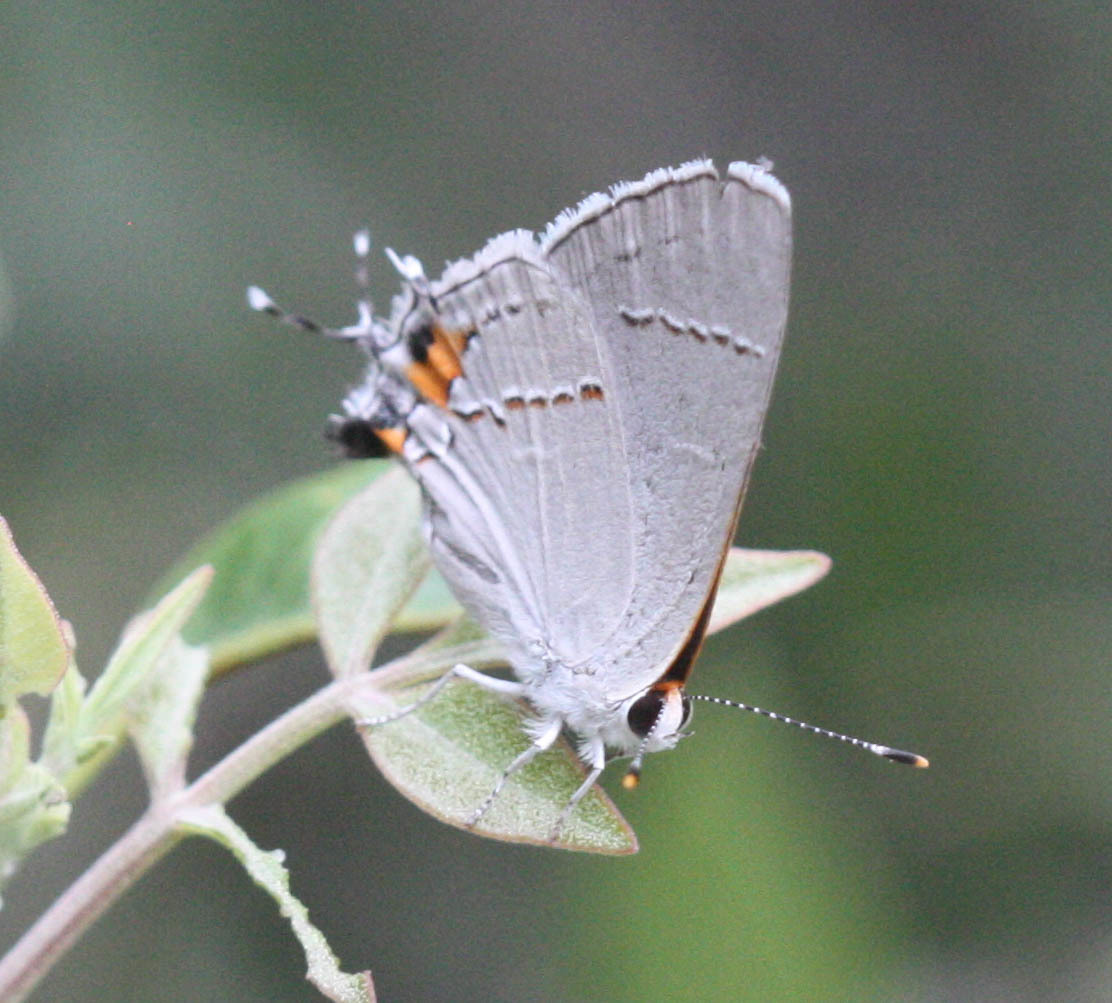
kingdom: Animalia
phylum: Arthropoda
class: Insecta
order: Lepidoptera
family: Lycaenidae
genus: Strymon
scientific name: Strymon melinus
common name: Gray hairstreak
